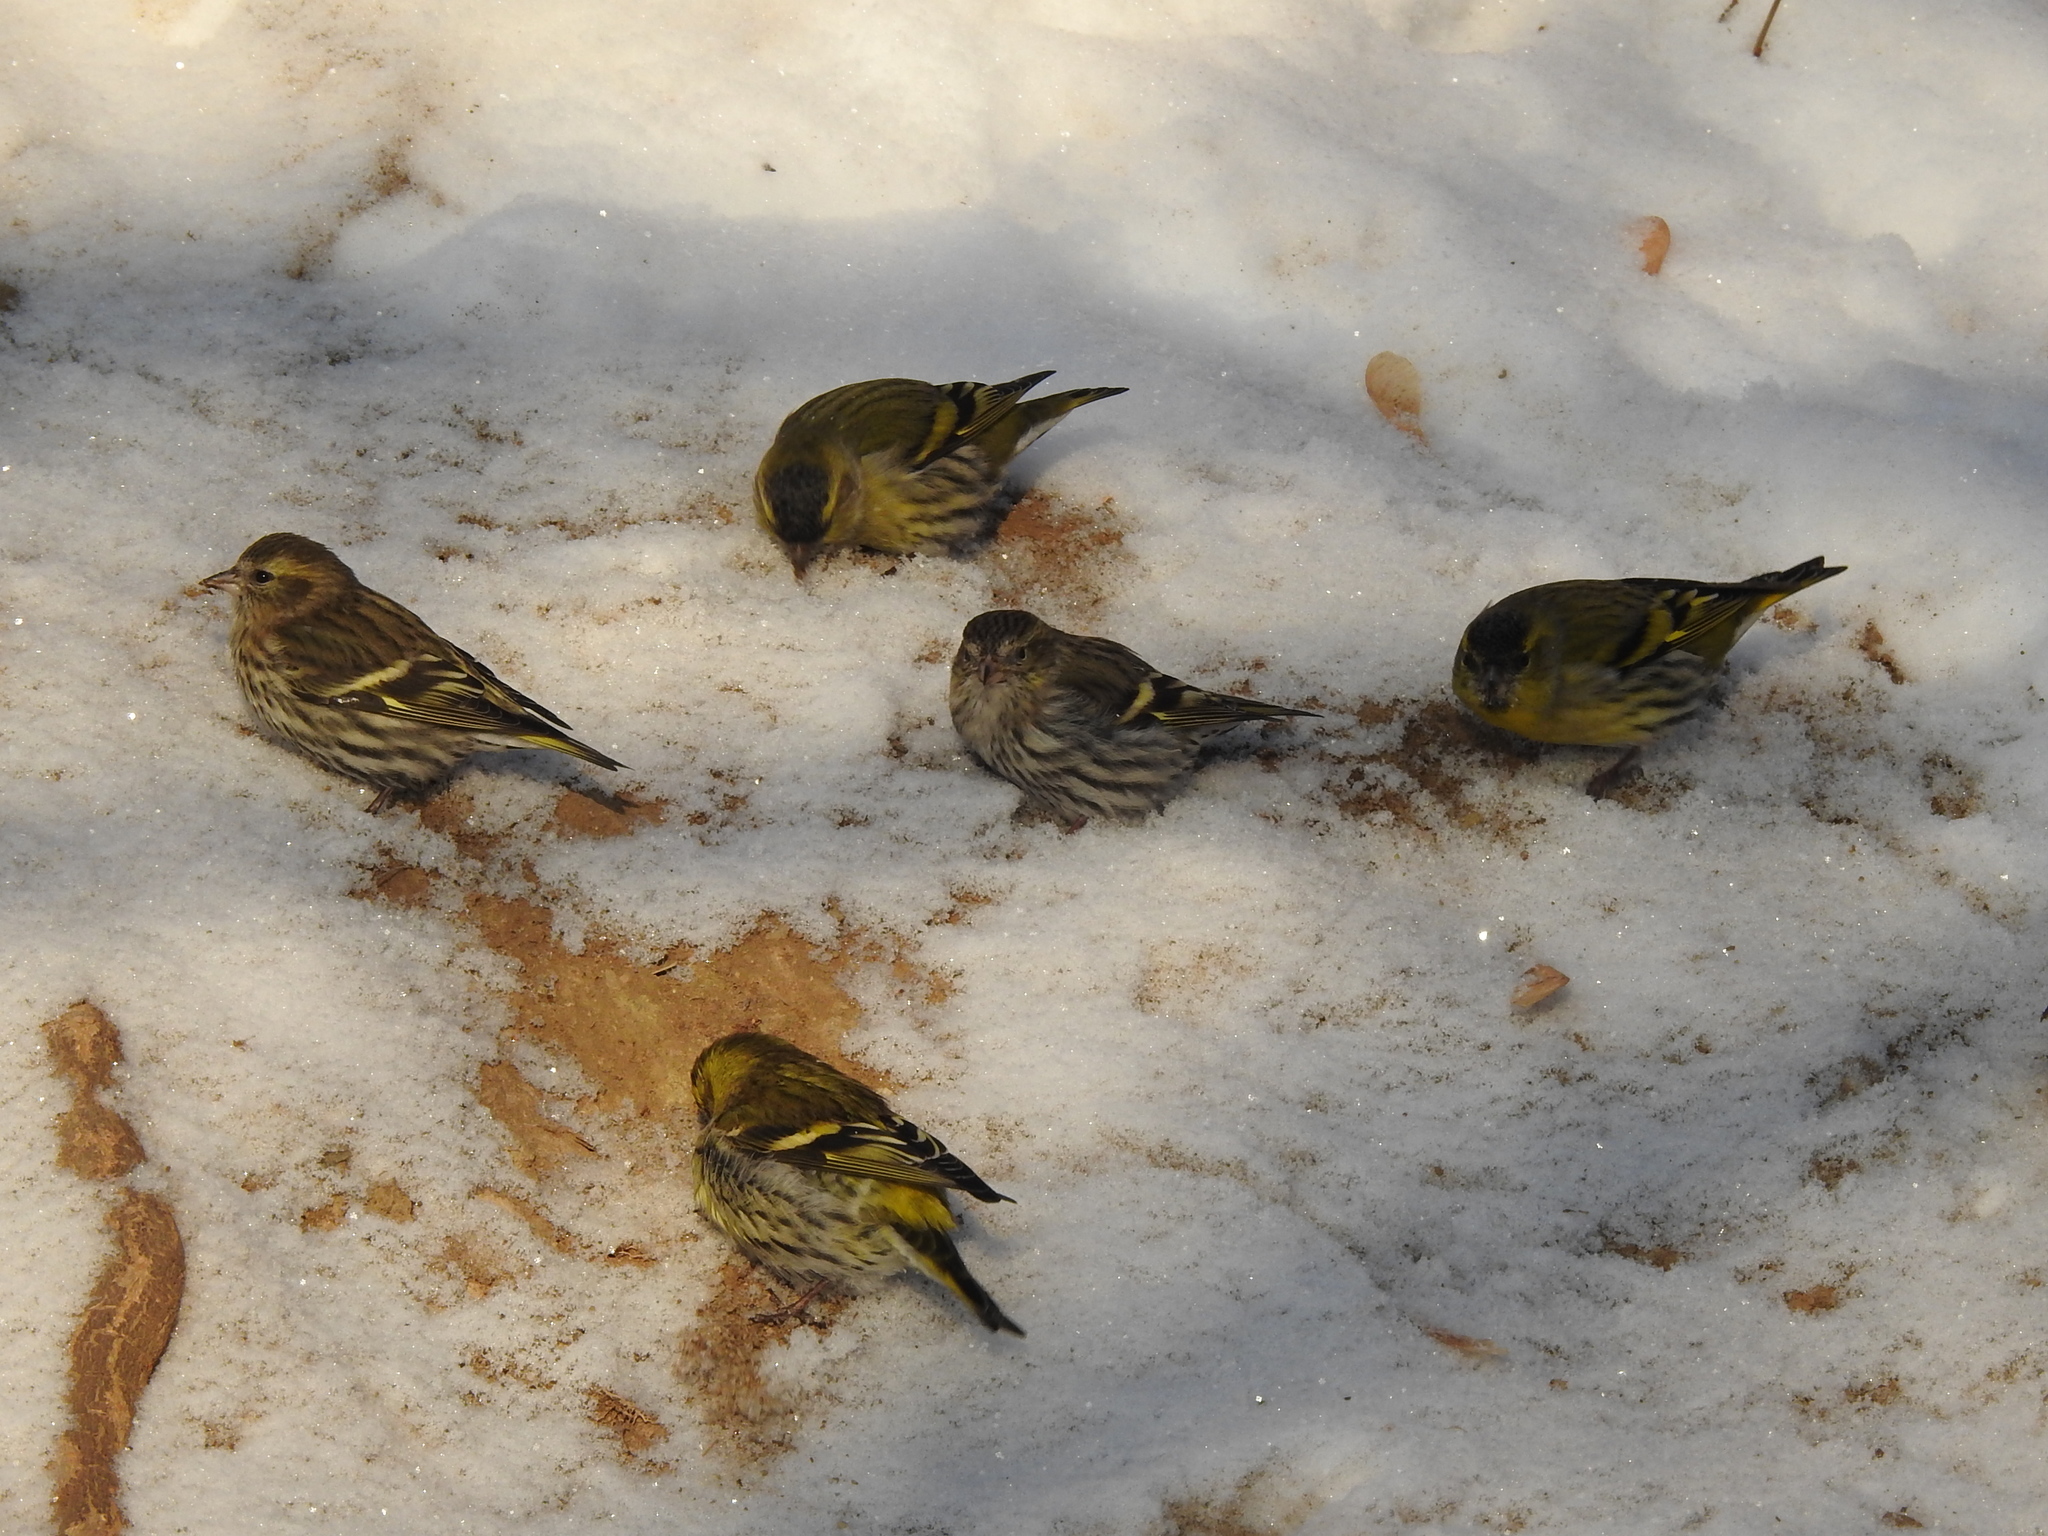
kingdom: Animalia
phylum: Chordata
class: Aves
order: Passeriformes
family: Fringillidae
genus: Spinus
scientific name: Spinus spinus
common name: Eurasian siskin
